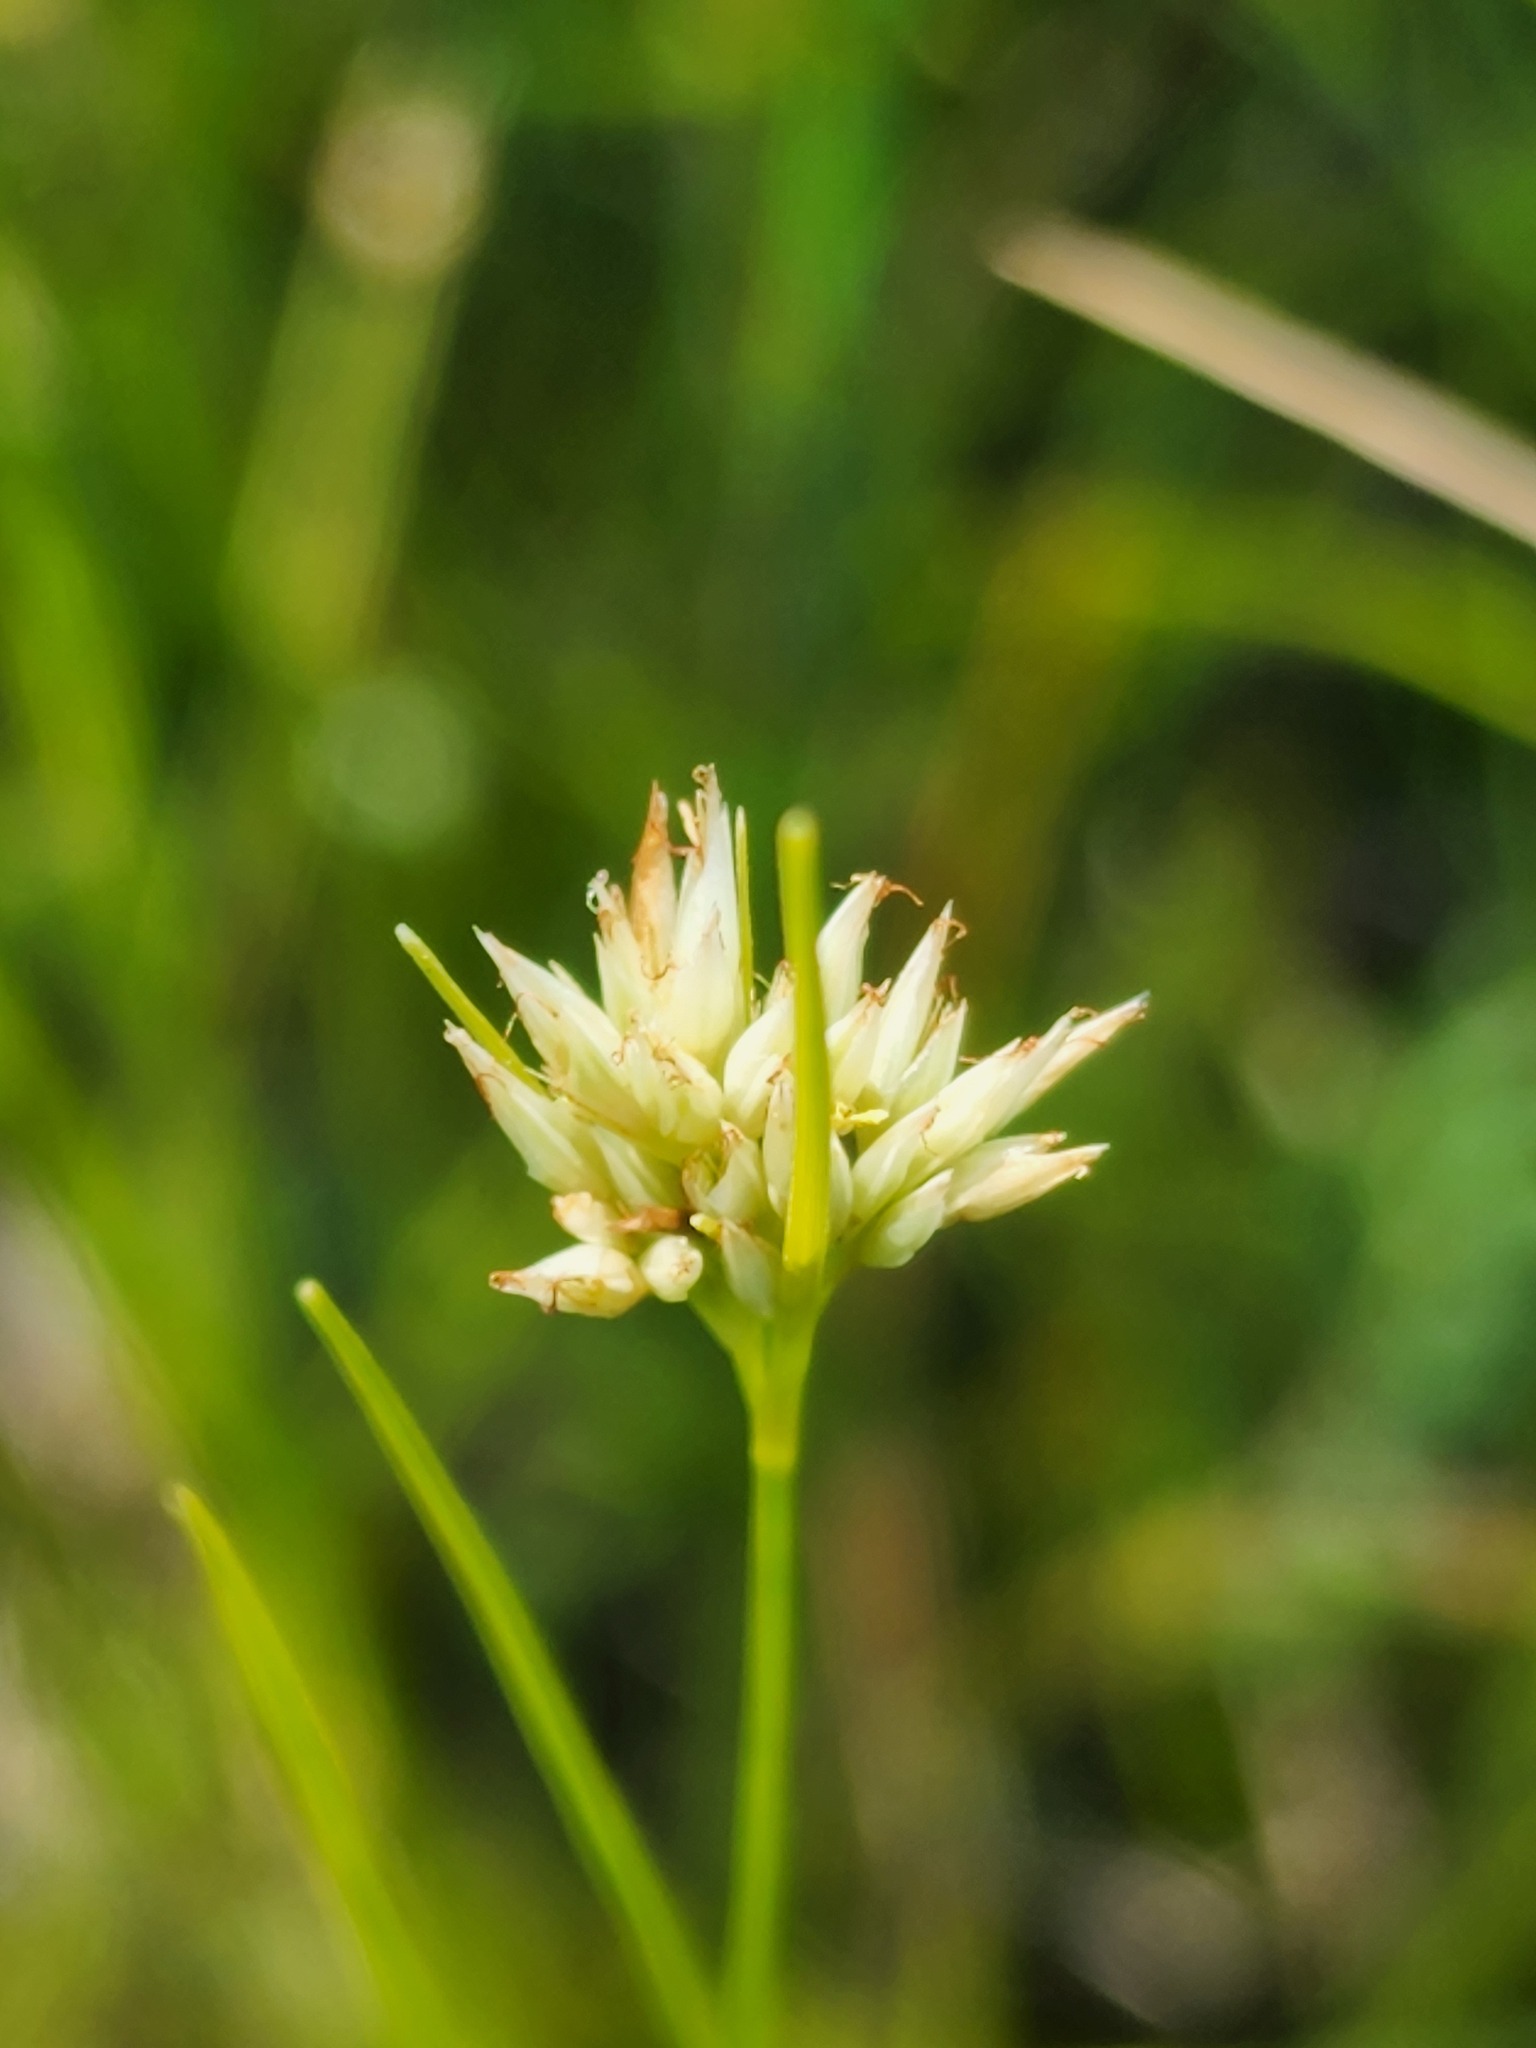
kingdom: Plantae
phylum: Tracheophyta
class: Liliopsida
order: Poales
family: Cyperaceae
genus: Rhynchospora
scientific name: Rhynchospora alba
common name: White beak-sedge
